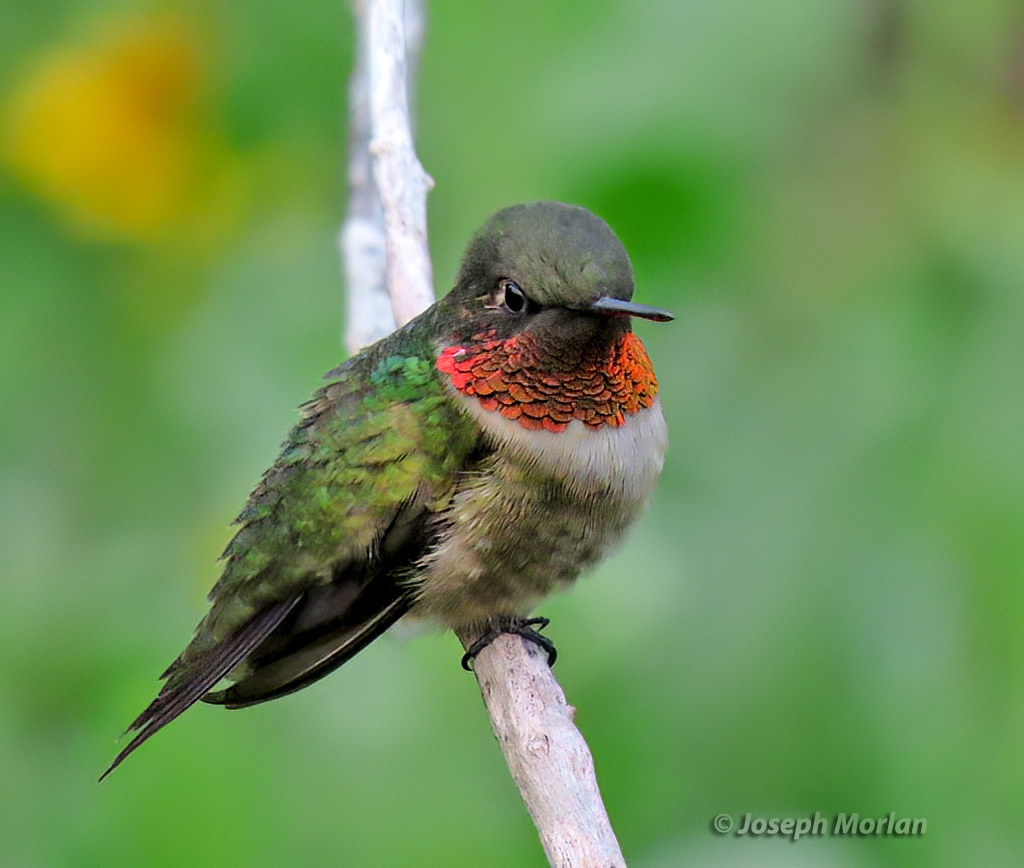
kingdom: Animalia
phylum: Chordata
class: Aves
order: Apodiformes
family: Trochilidae
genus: Archilochus
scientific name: Archilochus colubris
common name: Ruby-throated hummingbird
